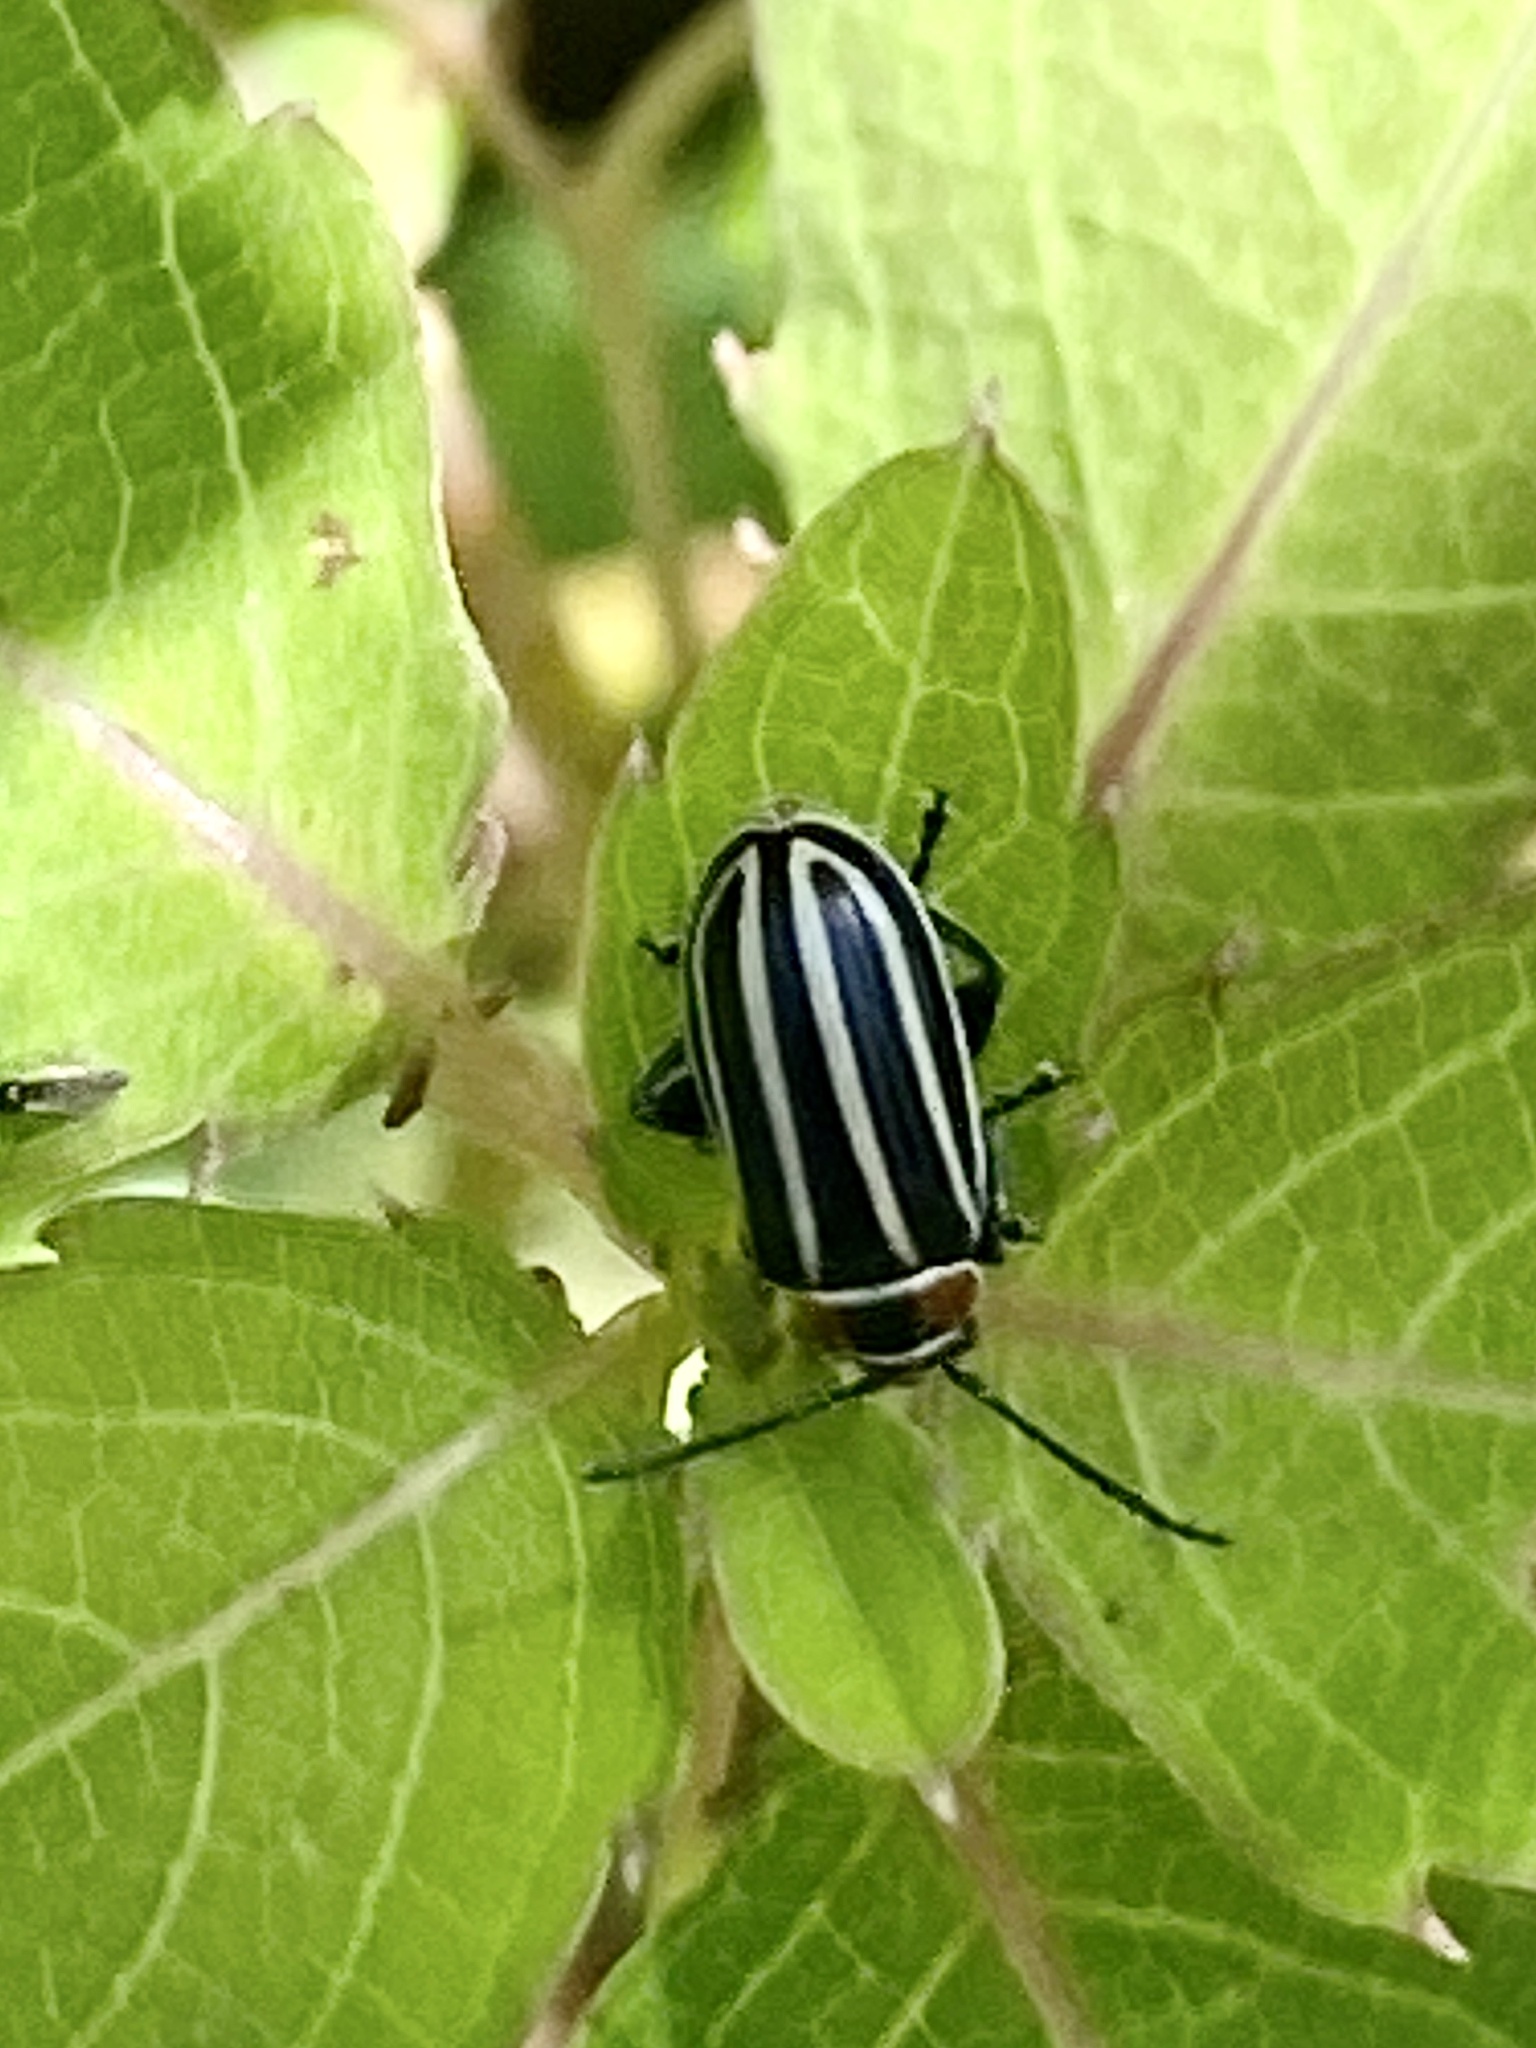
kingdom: Animalia
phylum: Arthropoda
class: Insecta
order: Coleoptera
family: Chrysomelidae
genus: Disonycha
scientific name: Disonycha pensylvanica
